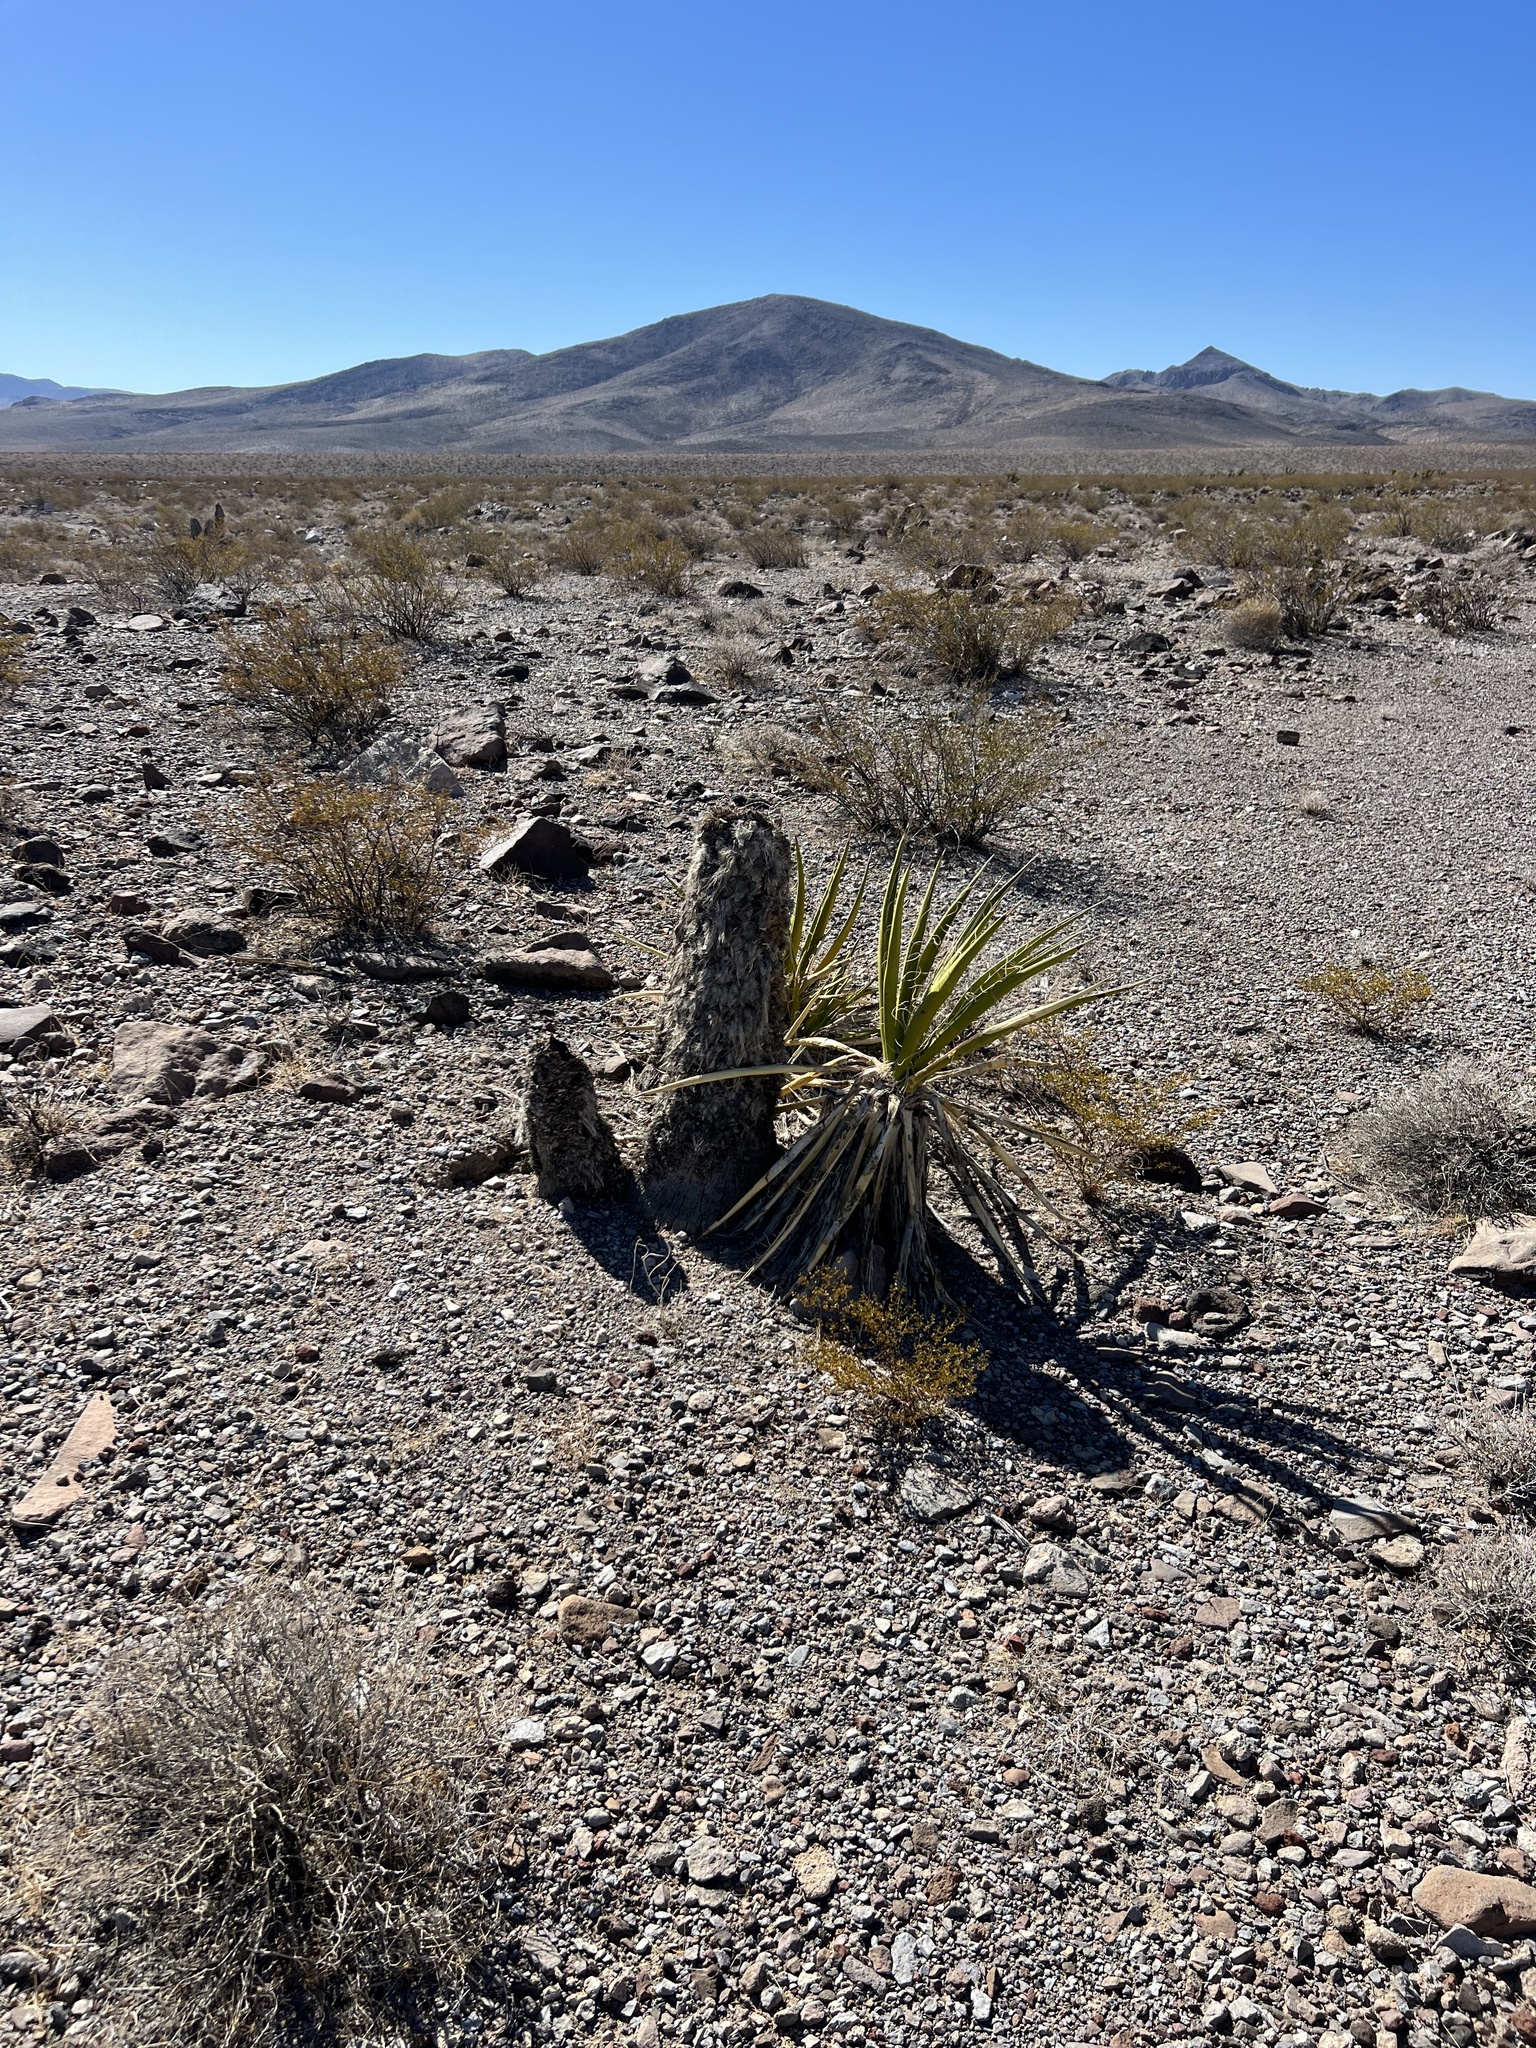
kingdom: Plantae
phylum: Tracheophyta
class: Liliopsida
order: Asparagales
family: Asparagaceae
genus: Yucca
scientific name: Yucca schidigera
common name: Mojave yucca
